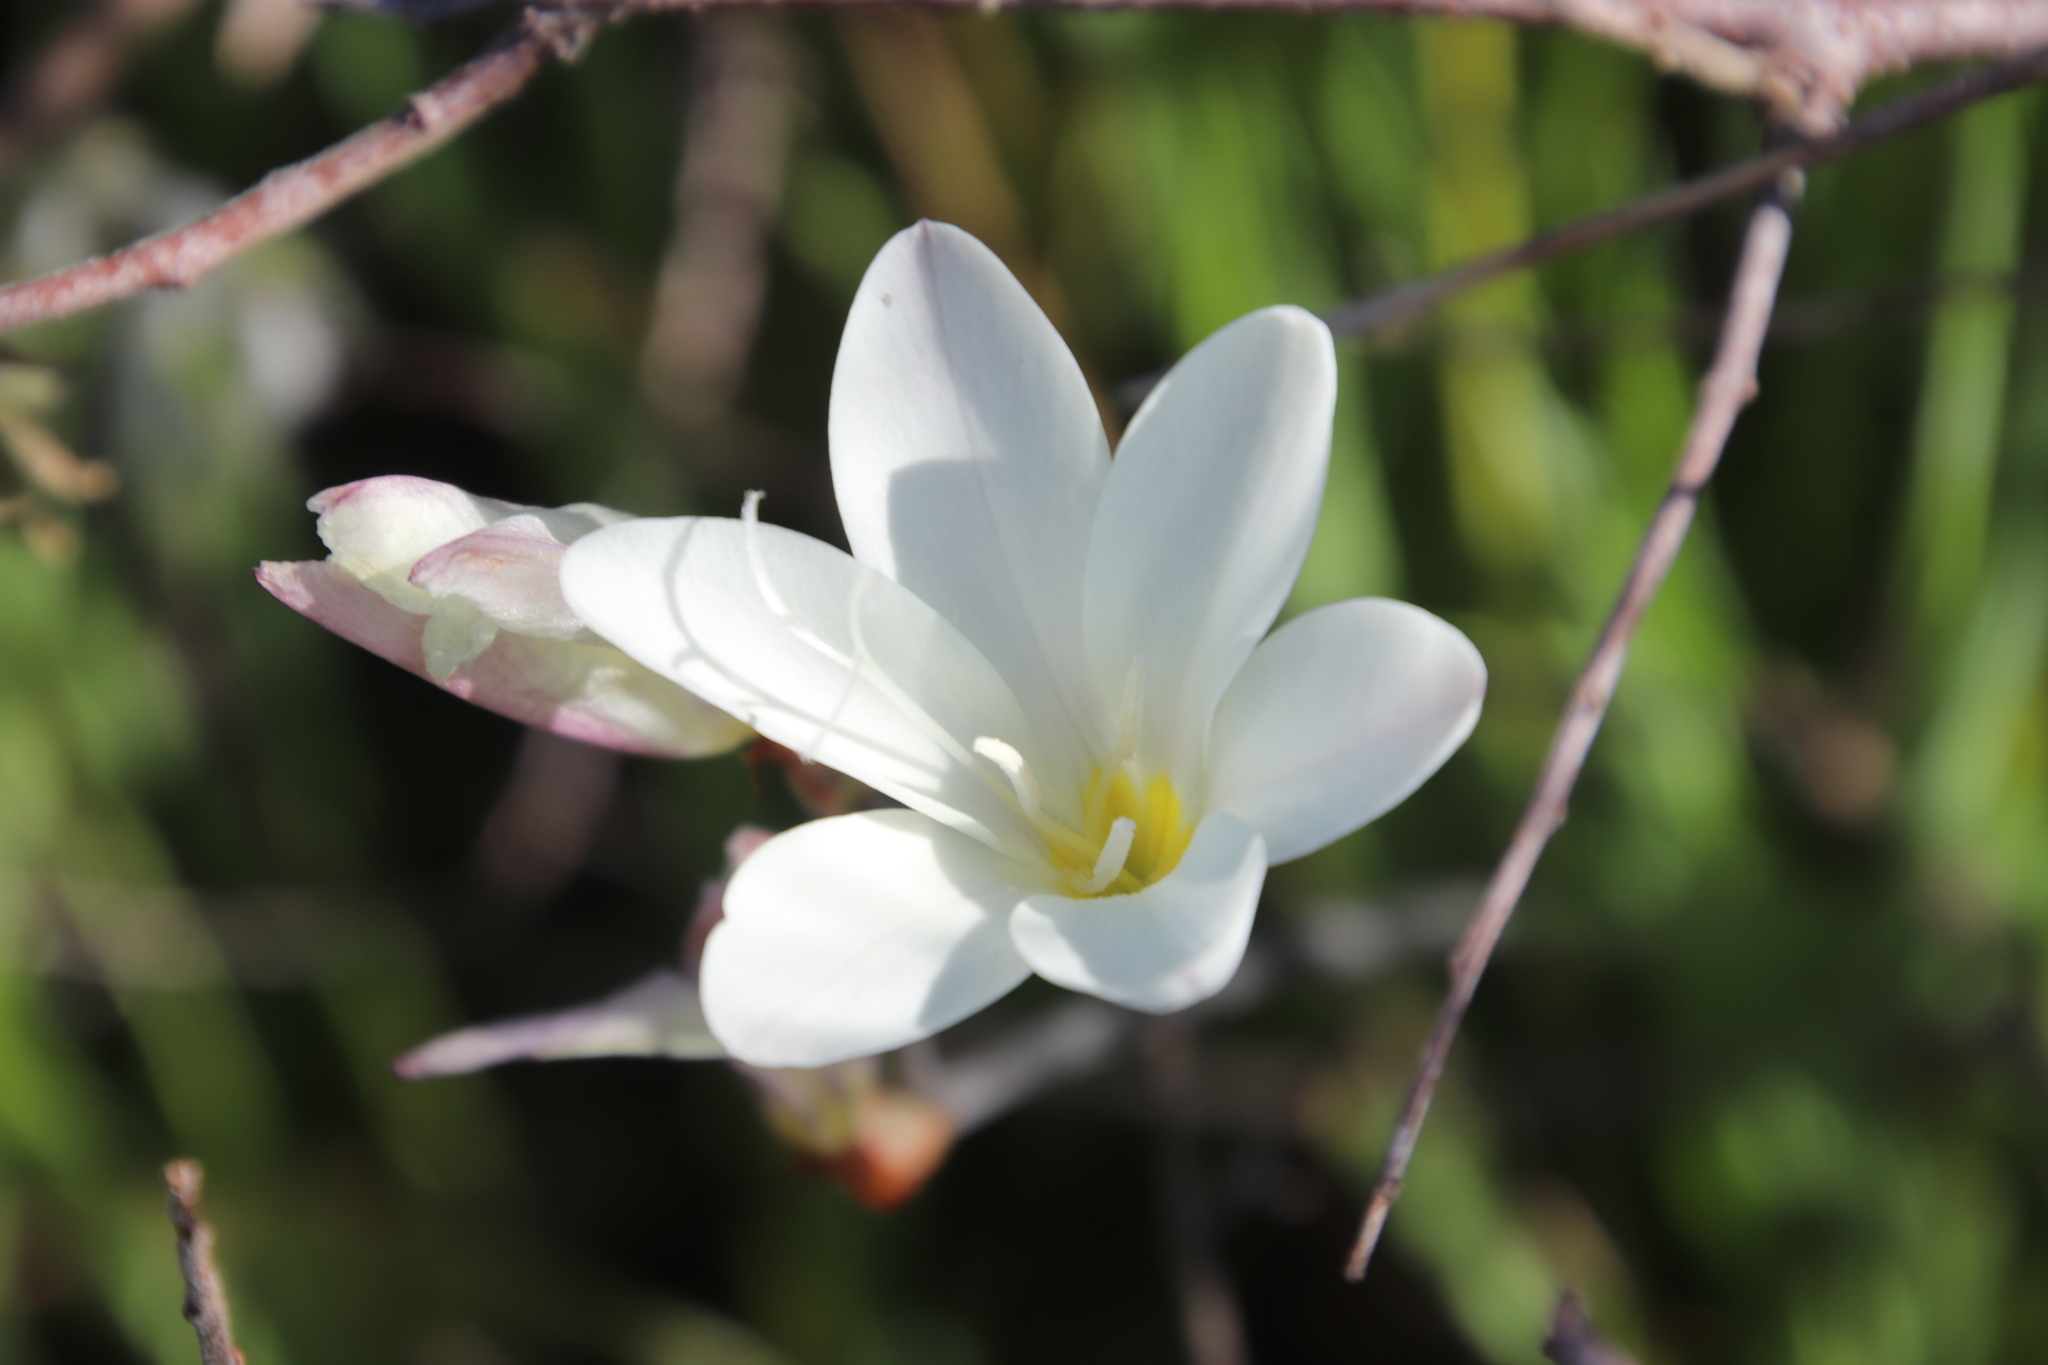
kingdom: Plantae
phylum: Tracheophyta
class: Liliopsida
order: Asparagales
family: Iridaceae
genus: Sparaxis
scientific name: Sparaxis bulbifera
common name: Harlequin-flower
